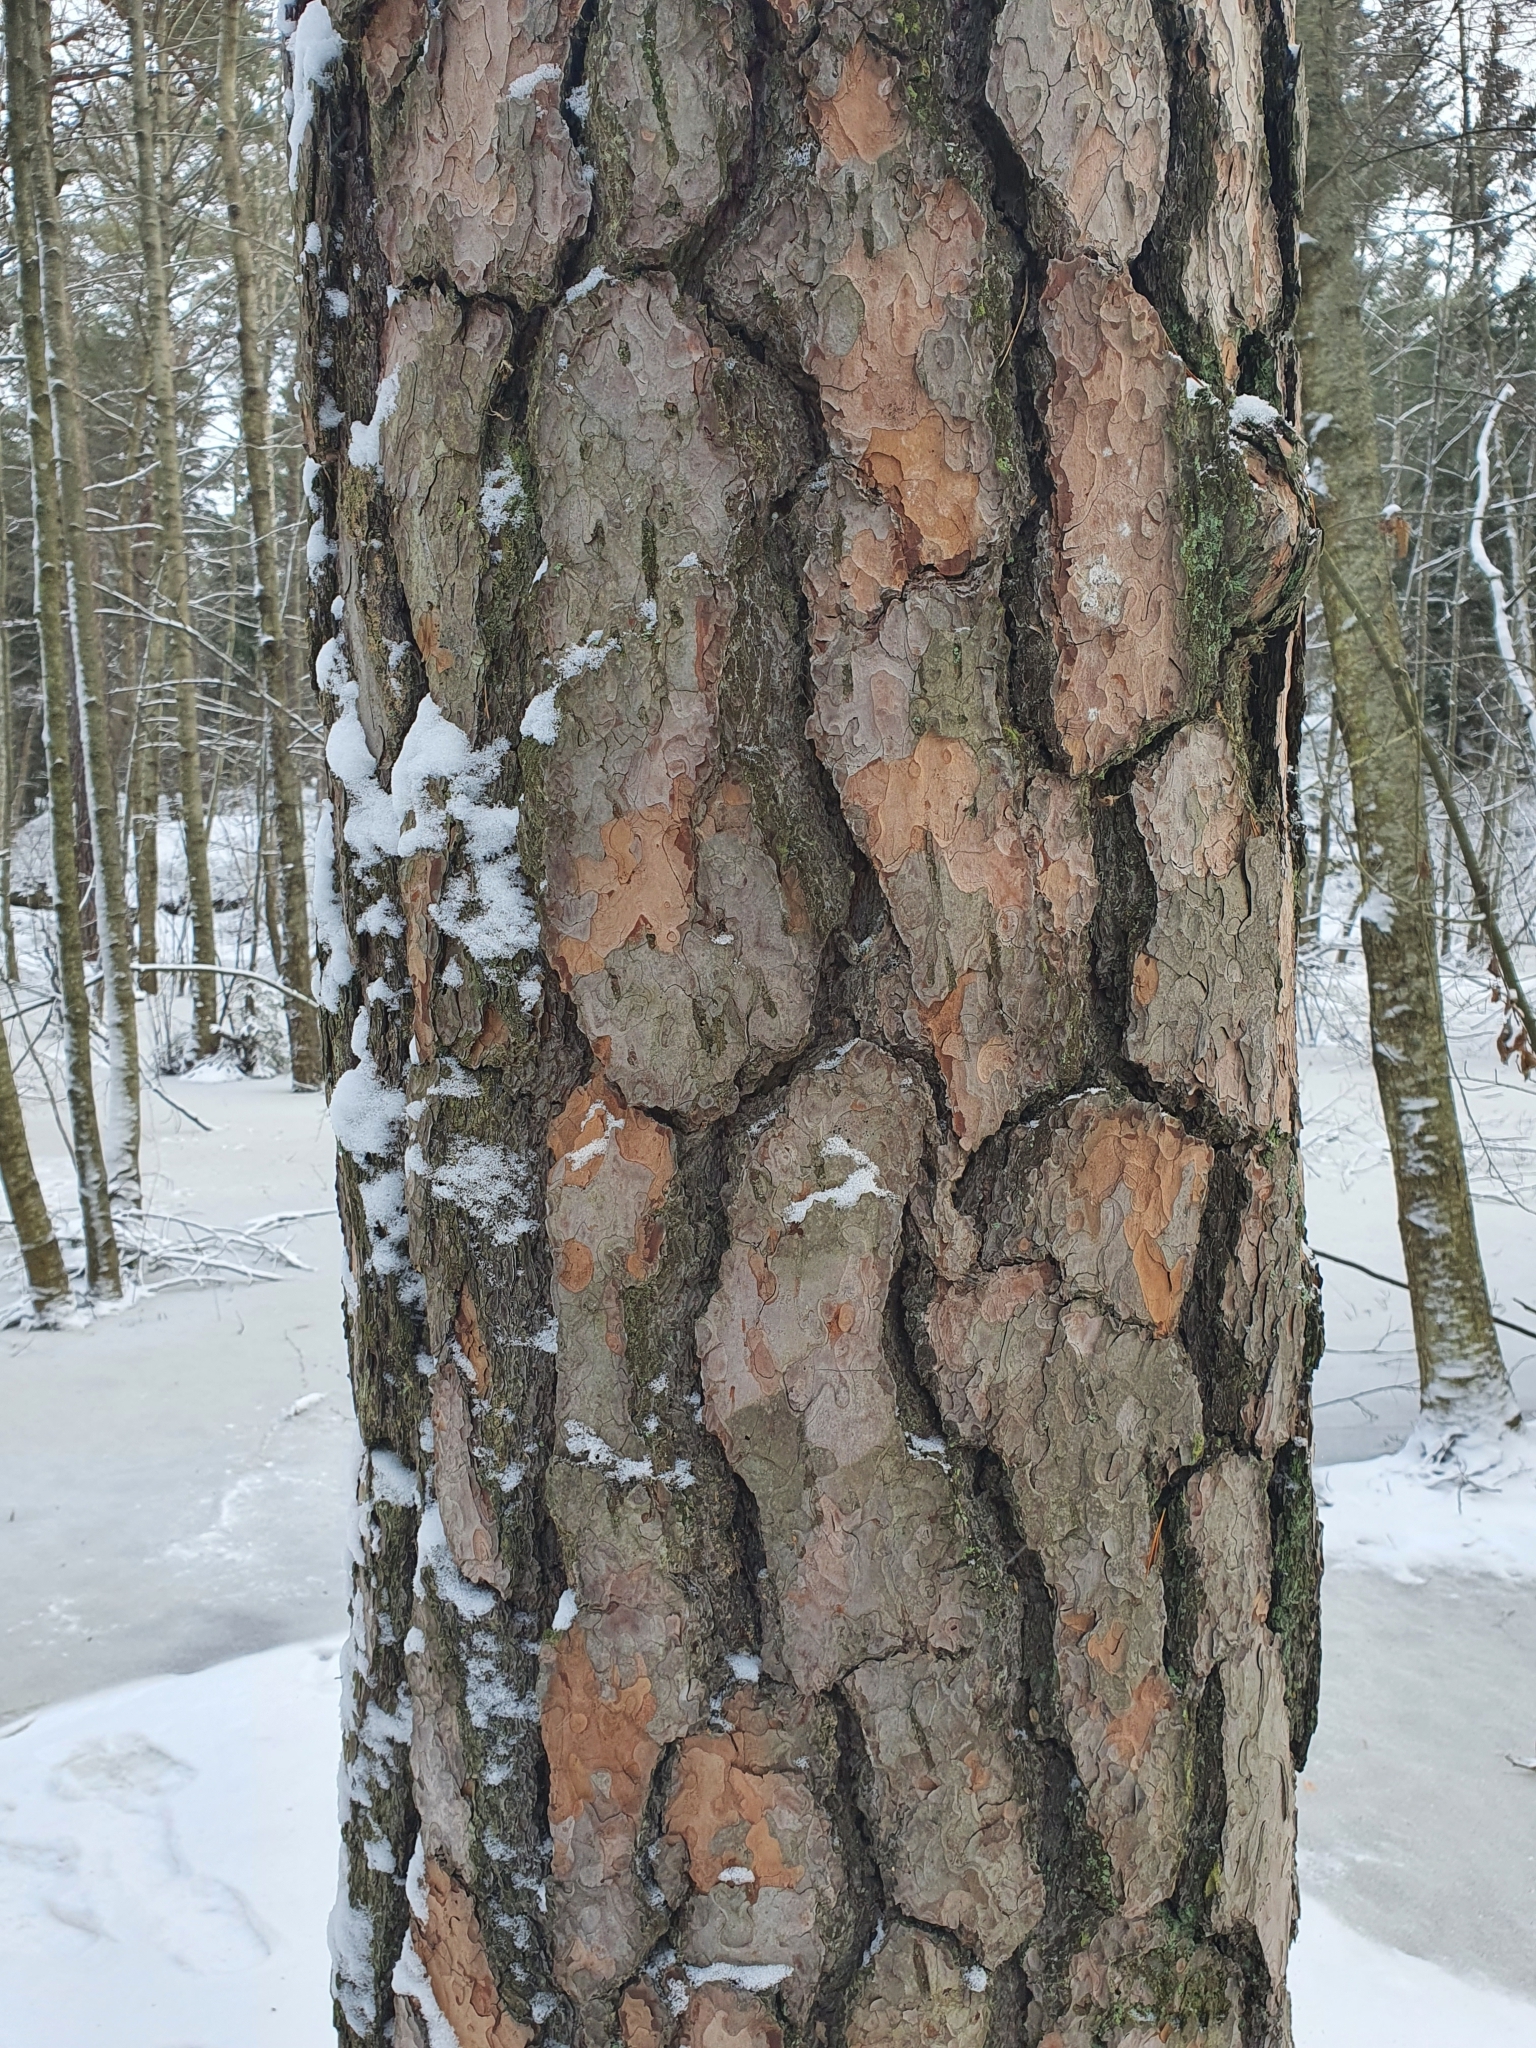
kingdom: Plantae
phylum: Tracheophyta
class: Pinopsida
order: Pinales
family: Pinaceae
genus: Pinus
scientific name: Pinus sylvestris
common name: Scots pine
